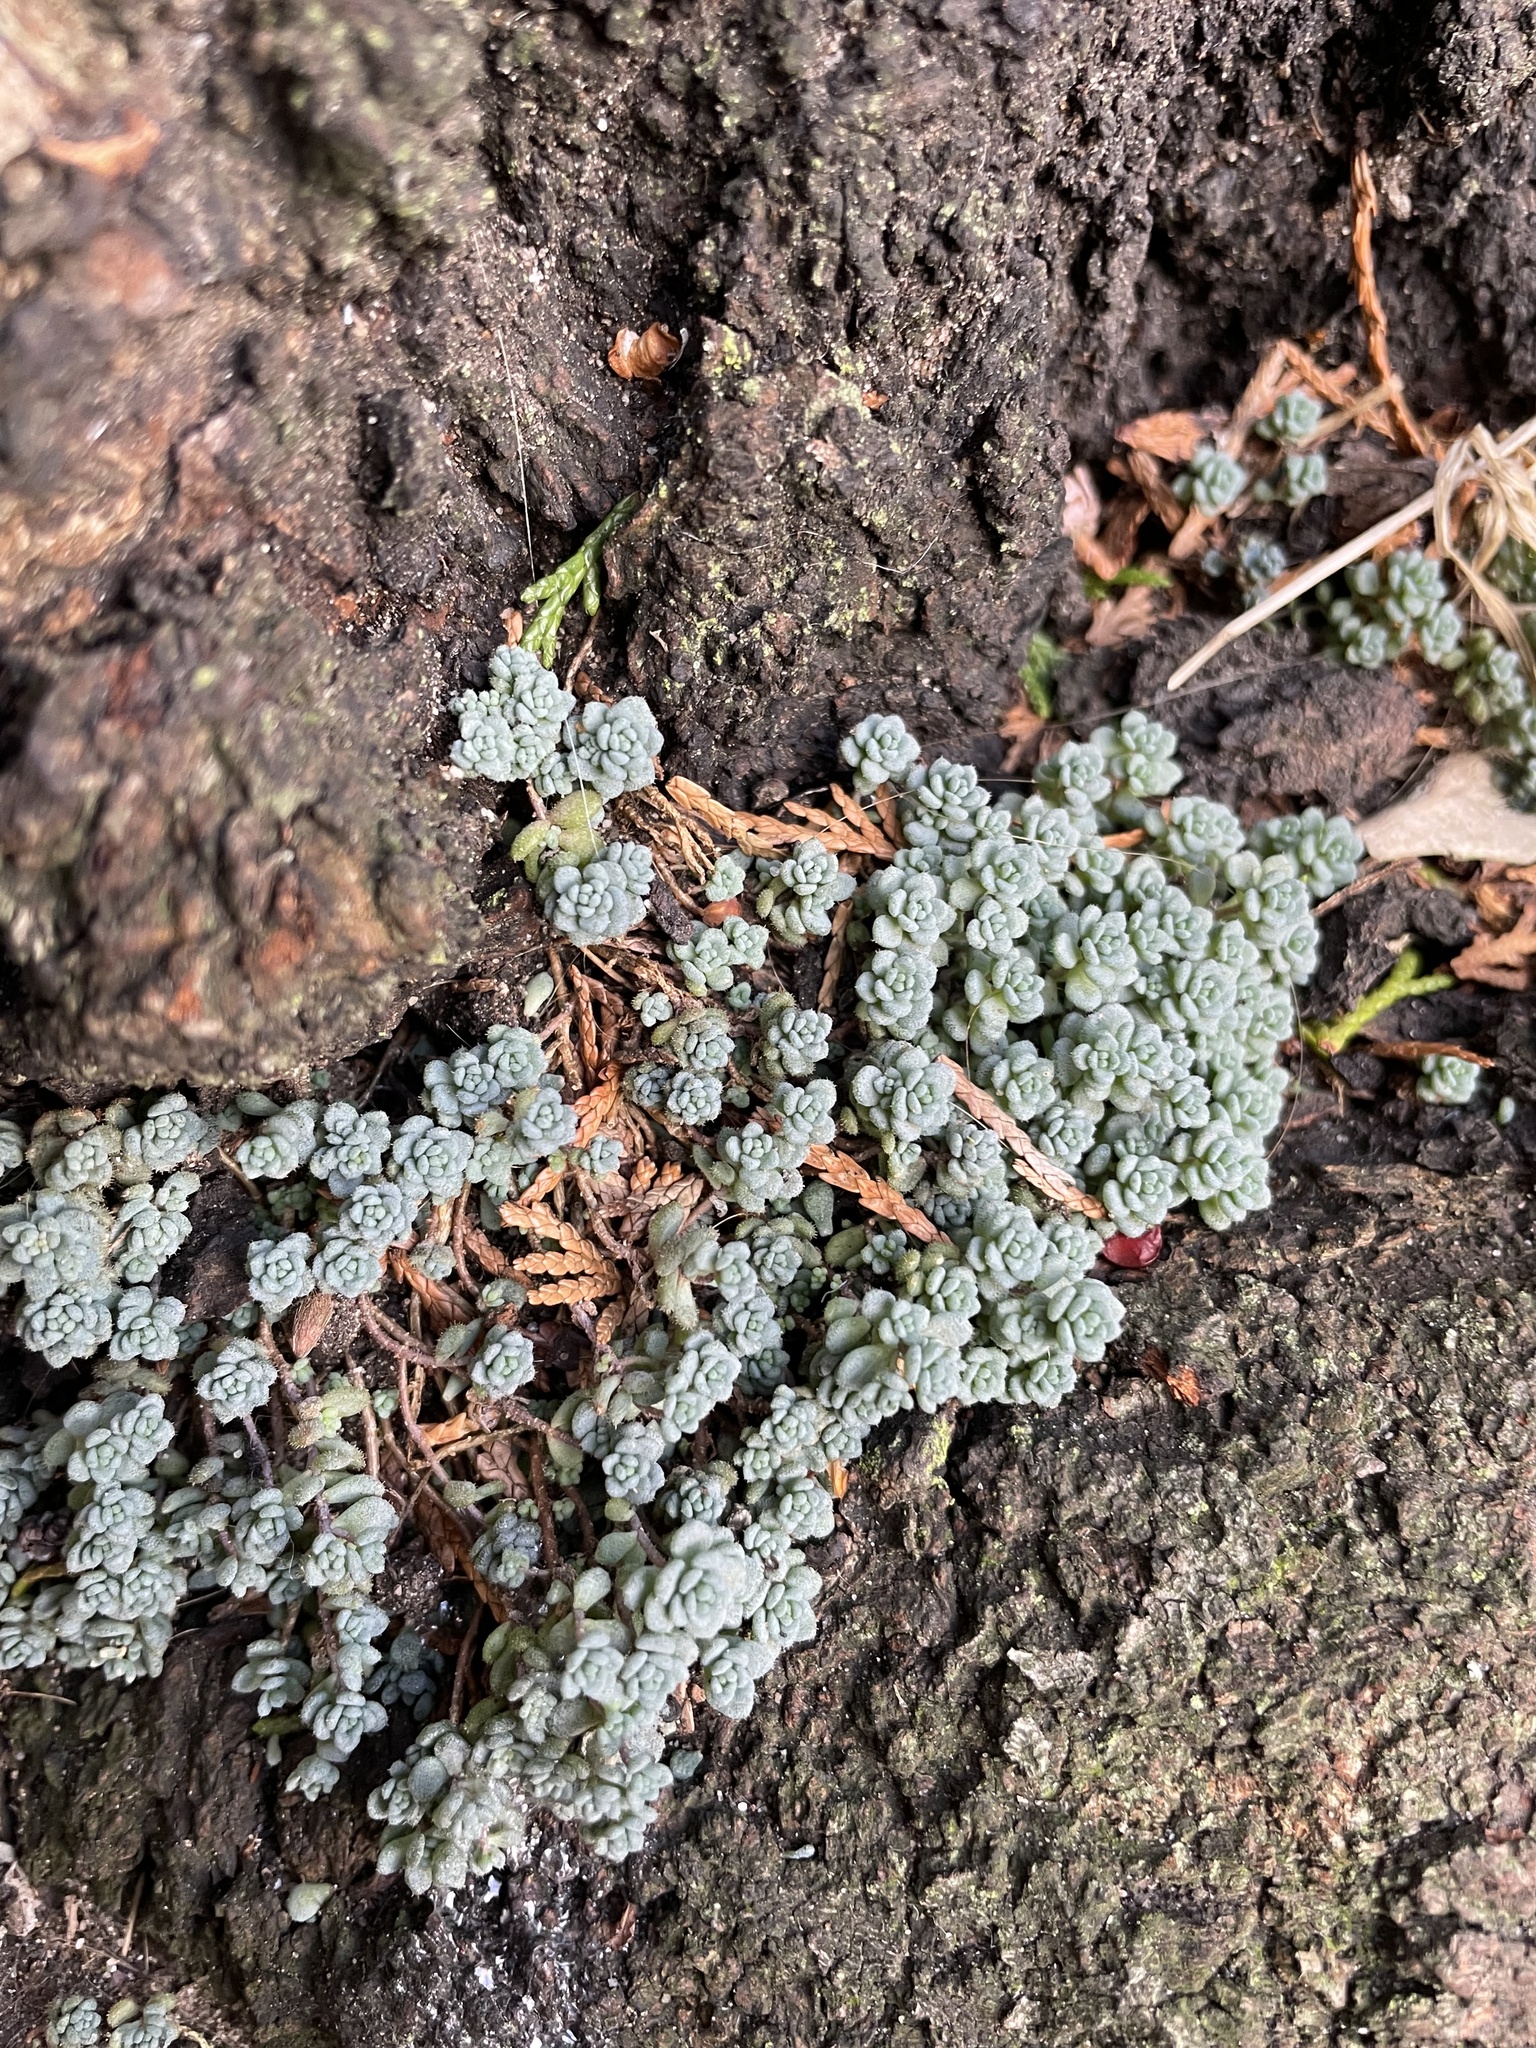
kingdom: Plantae
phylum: Tracheophyta
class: Magnoliopsida
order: Saxifragales
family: Crassulaceae
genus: Sedum
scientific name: Sedum dasyphyllum
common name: Thick-leaf stonecrop
